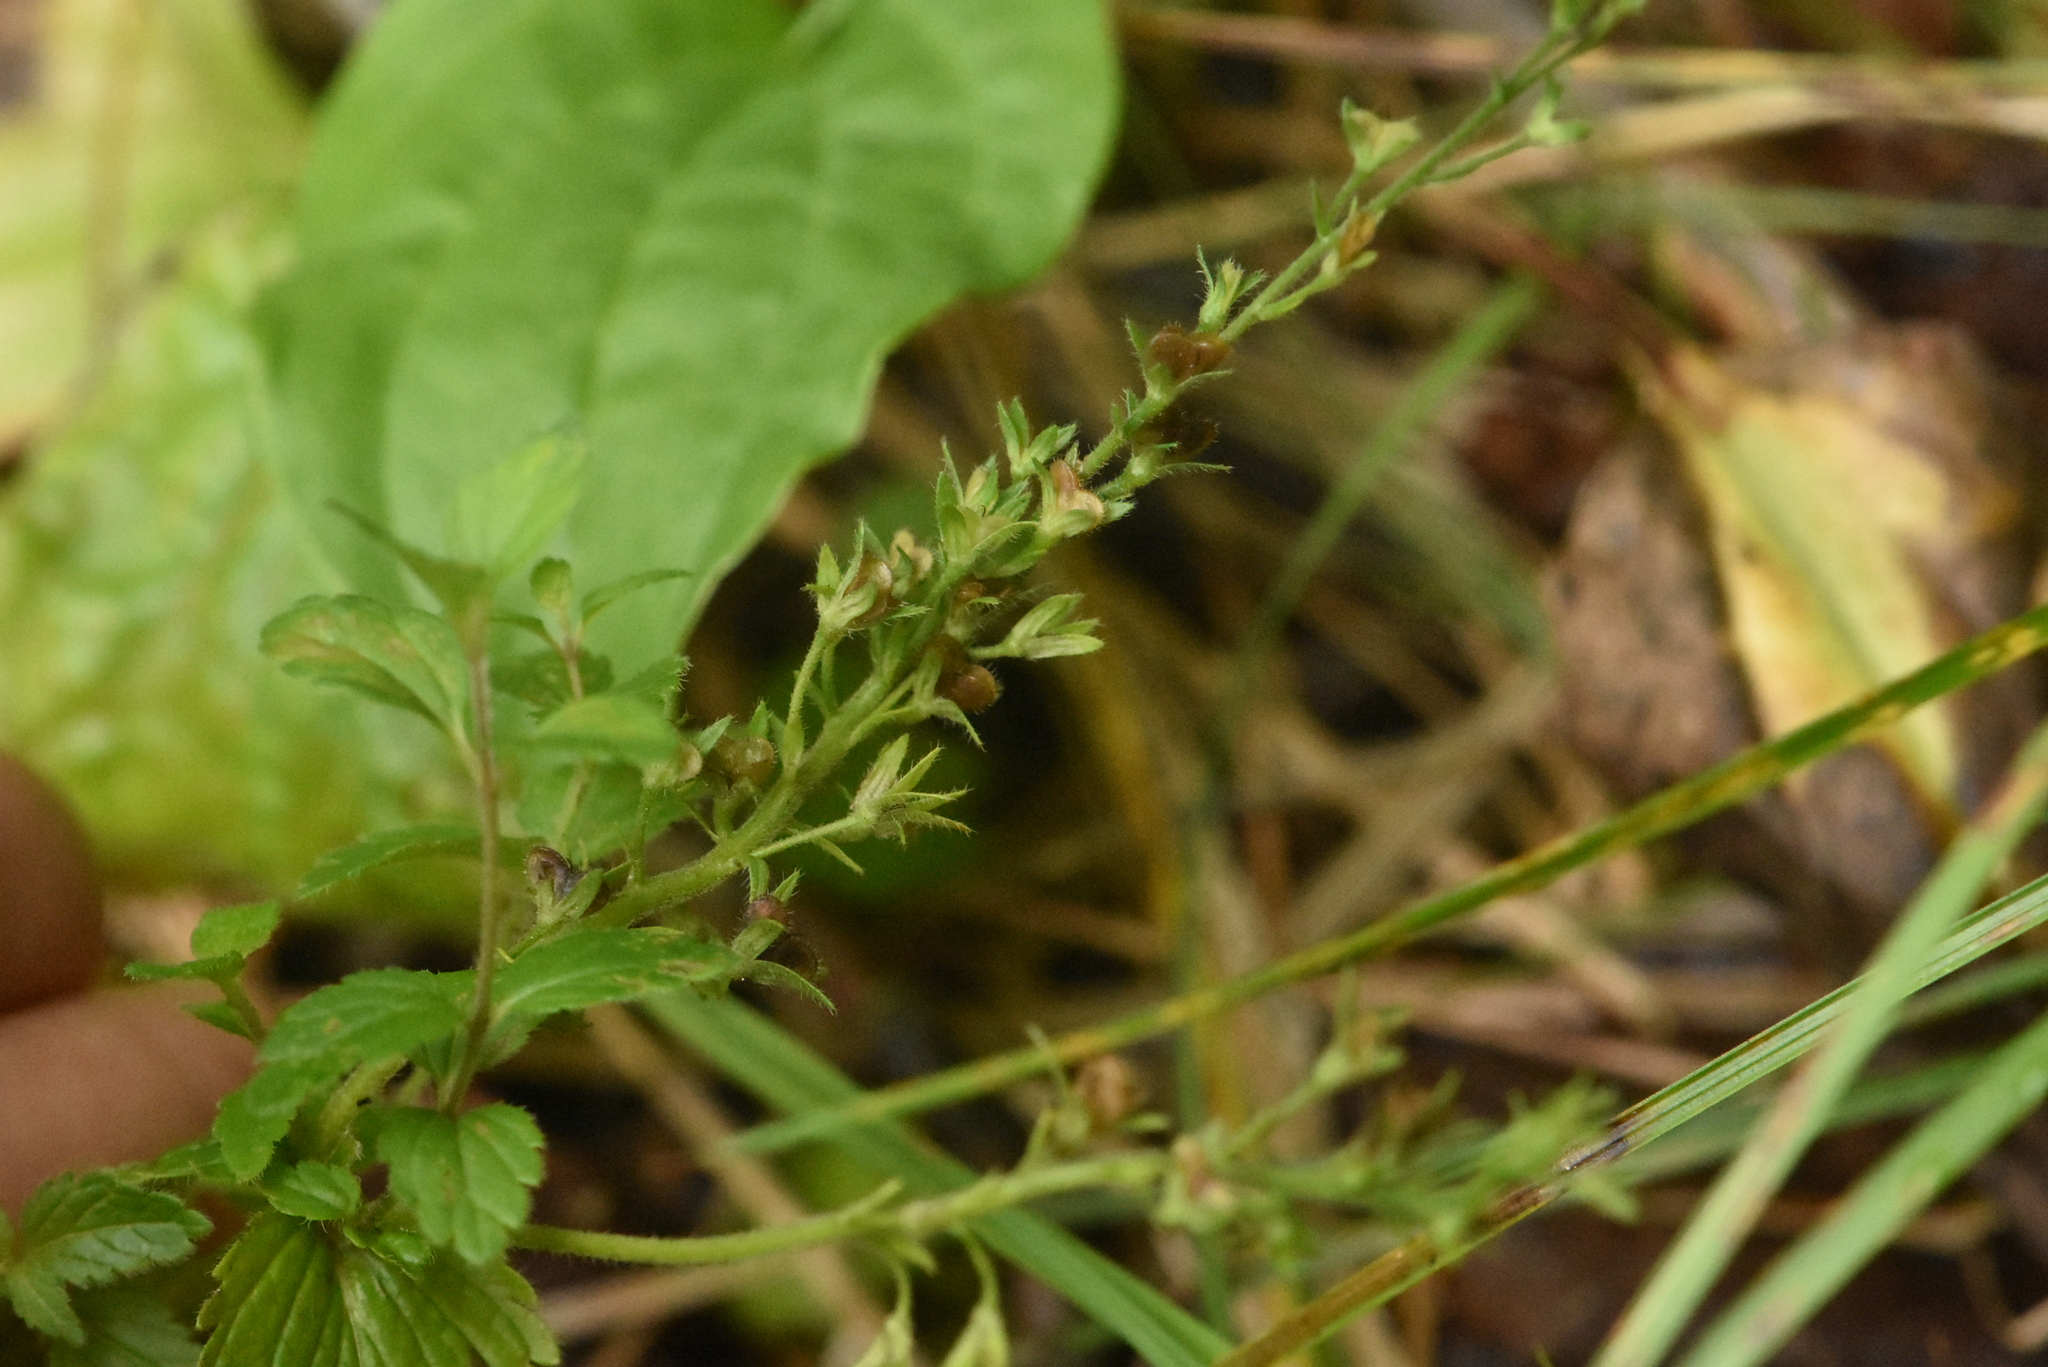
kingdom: Plantae
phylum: Tracheophyta
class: Magnoliopsida
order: Lamiales
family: Plantaginaceae
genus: Veronica
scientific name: Veronica chamaedrys
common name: Germander speedwell
